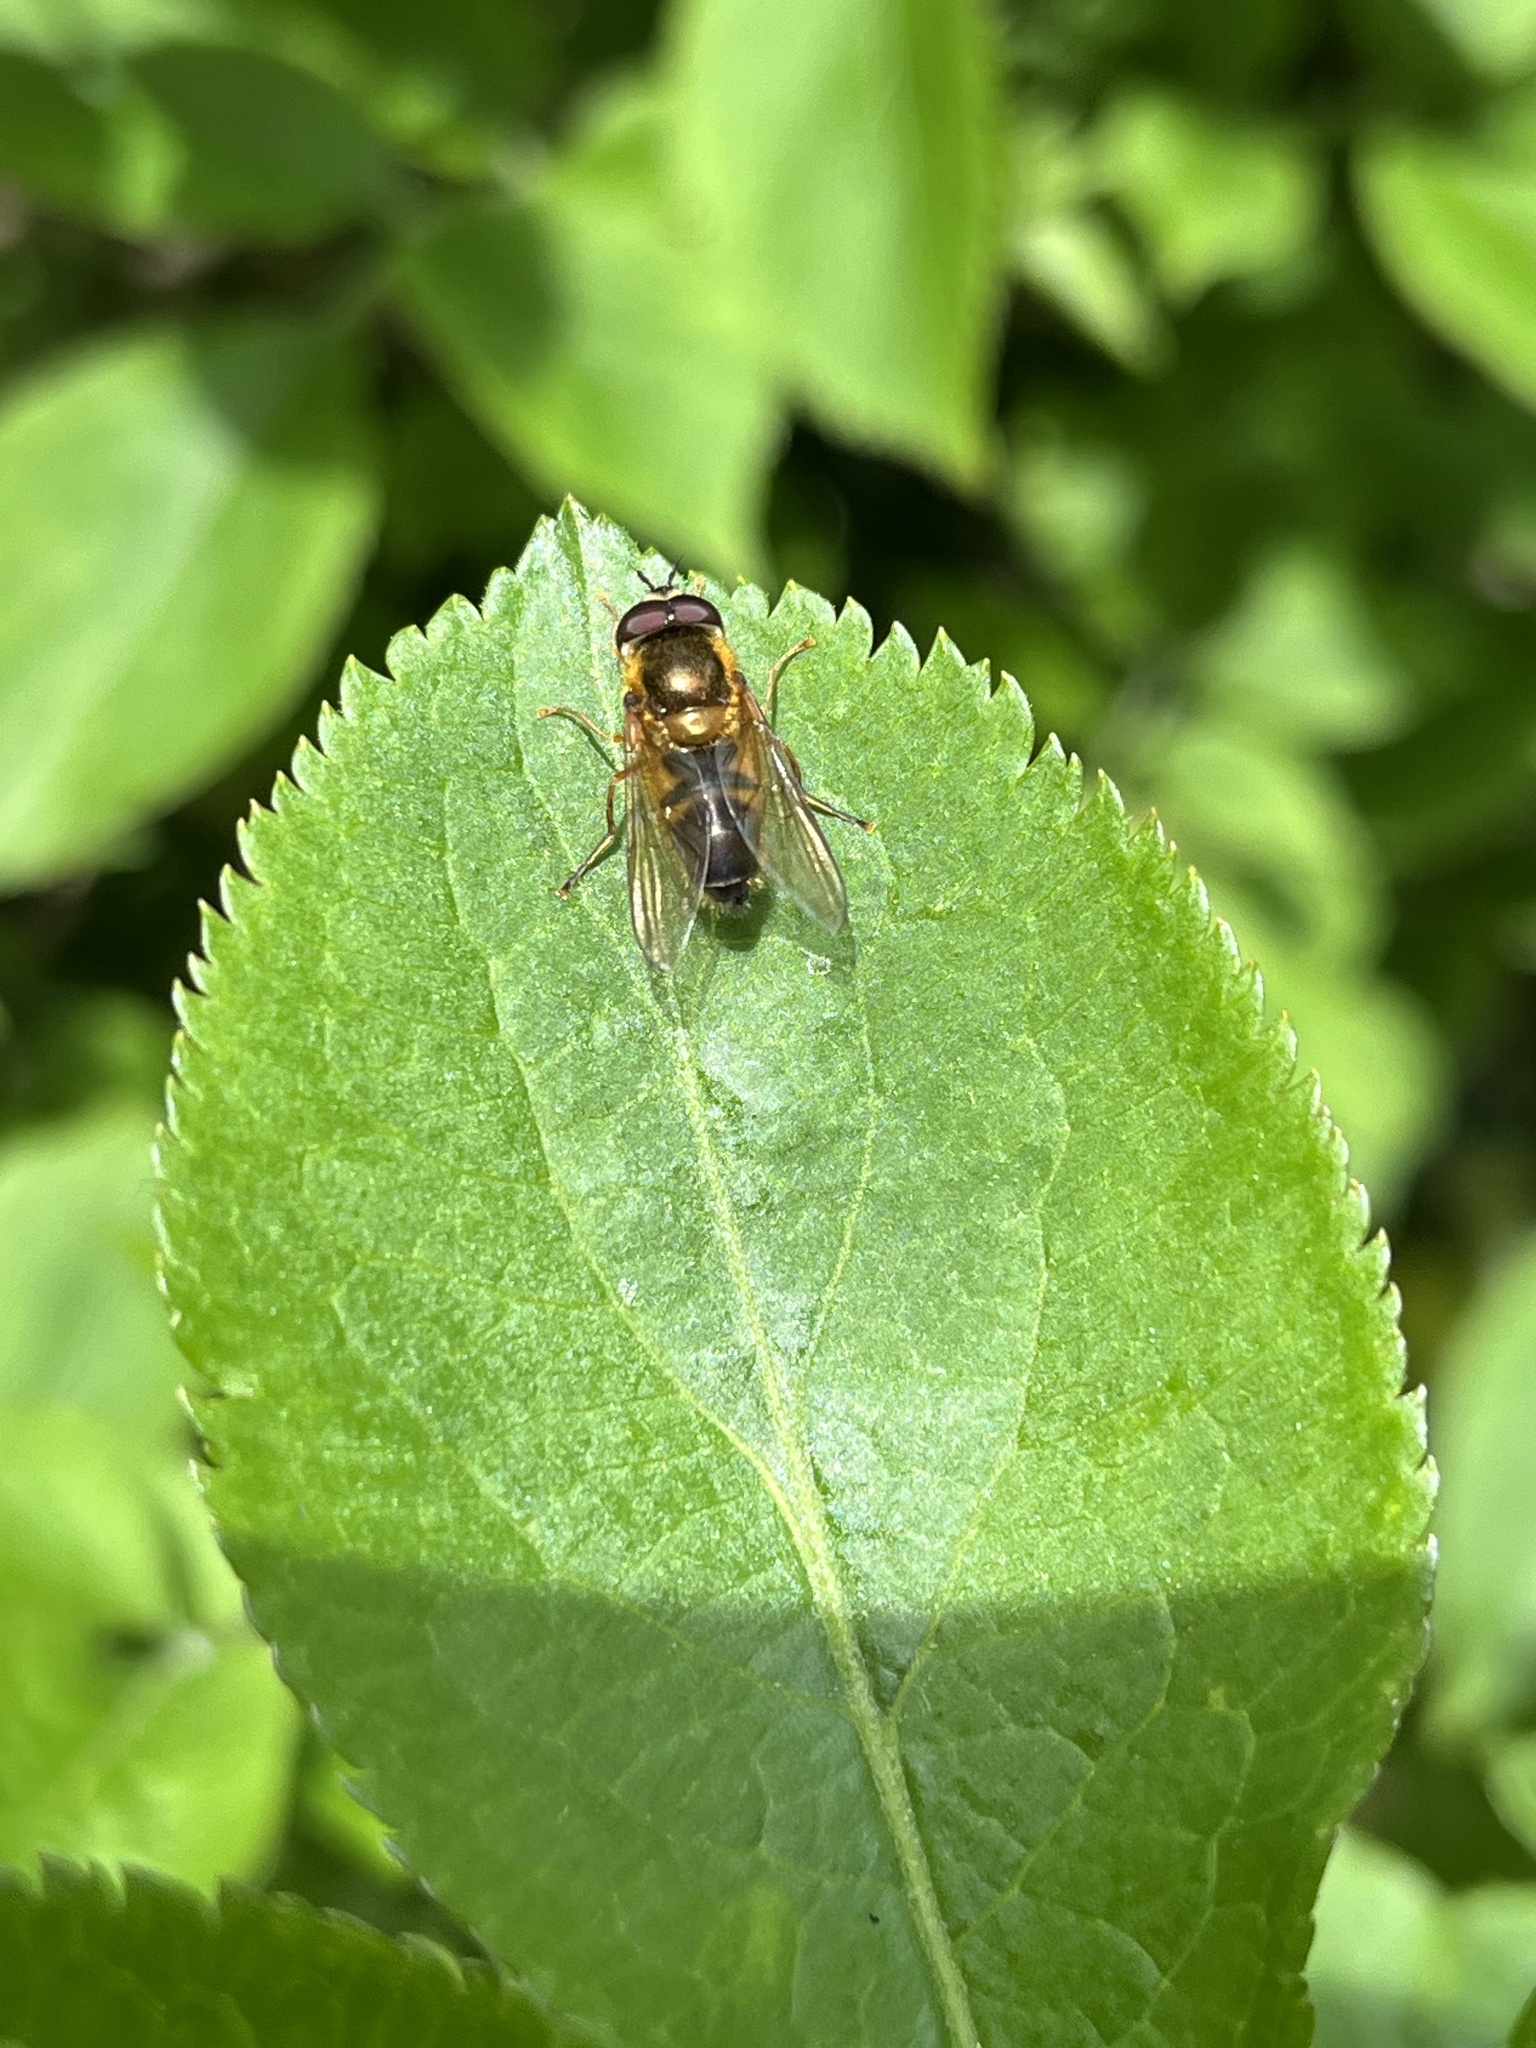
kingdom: Animalia
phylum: Arthropoda
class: Insecta
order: Diptera
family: Syrphidae
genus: Epistrophe
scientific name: Epistrophe eligans
